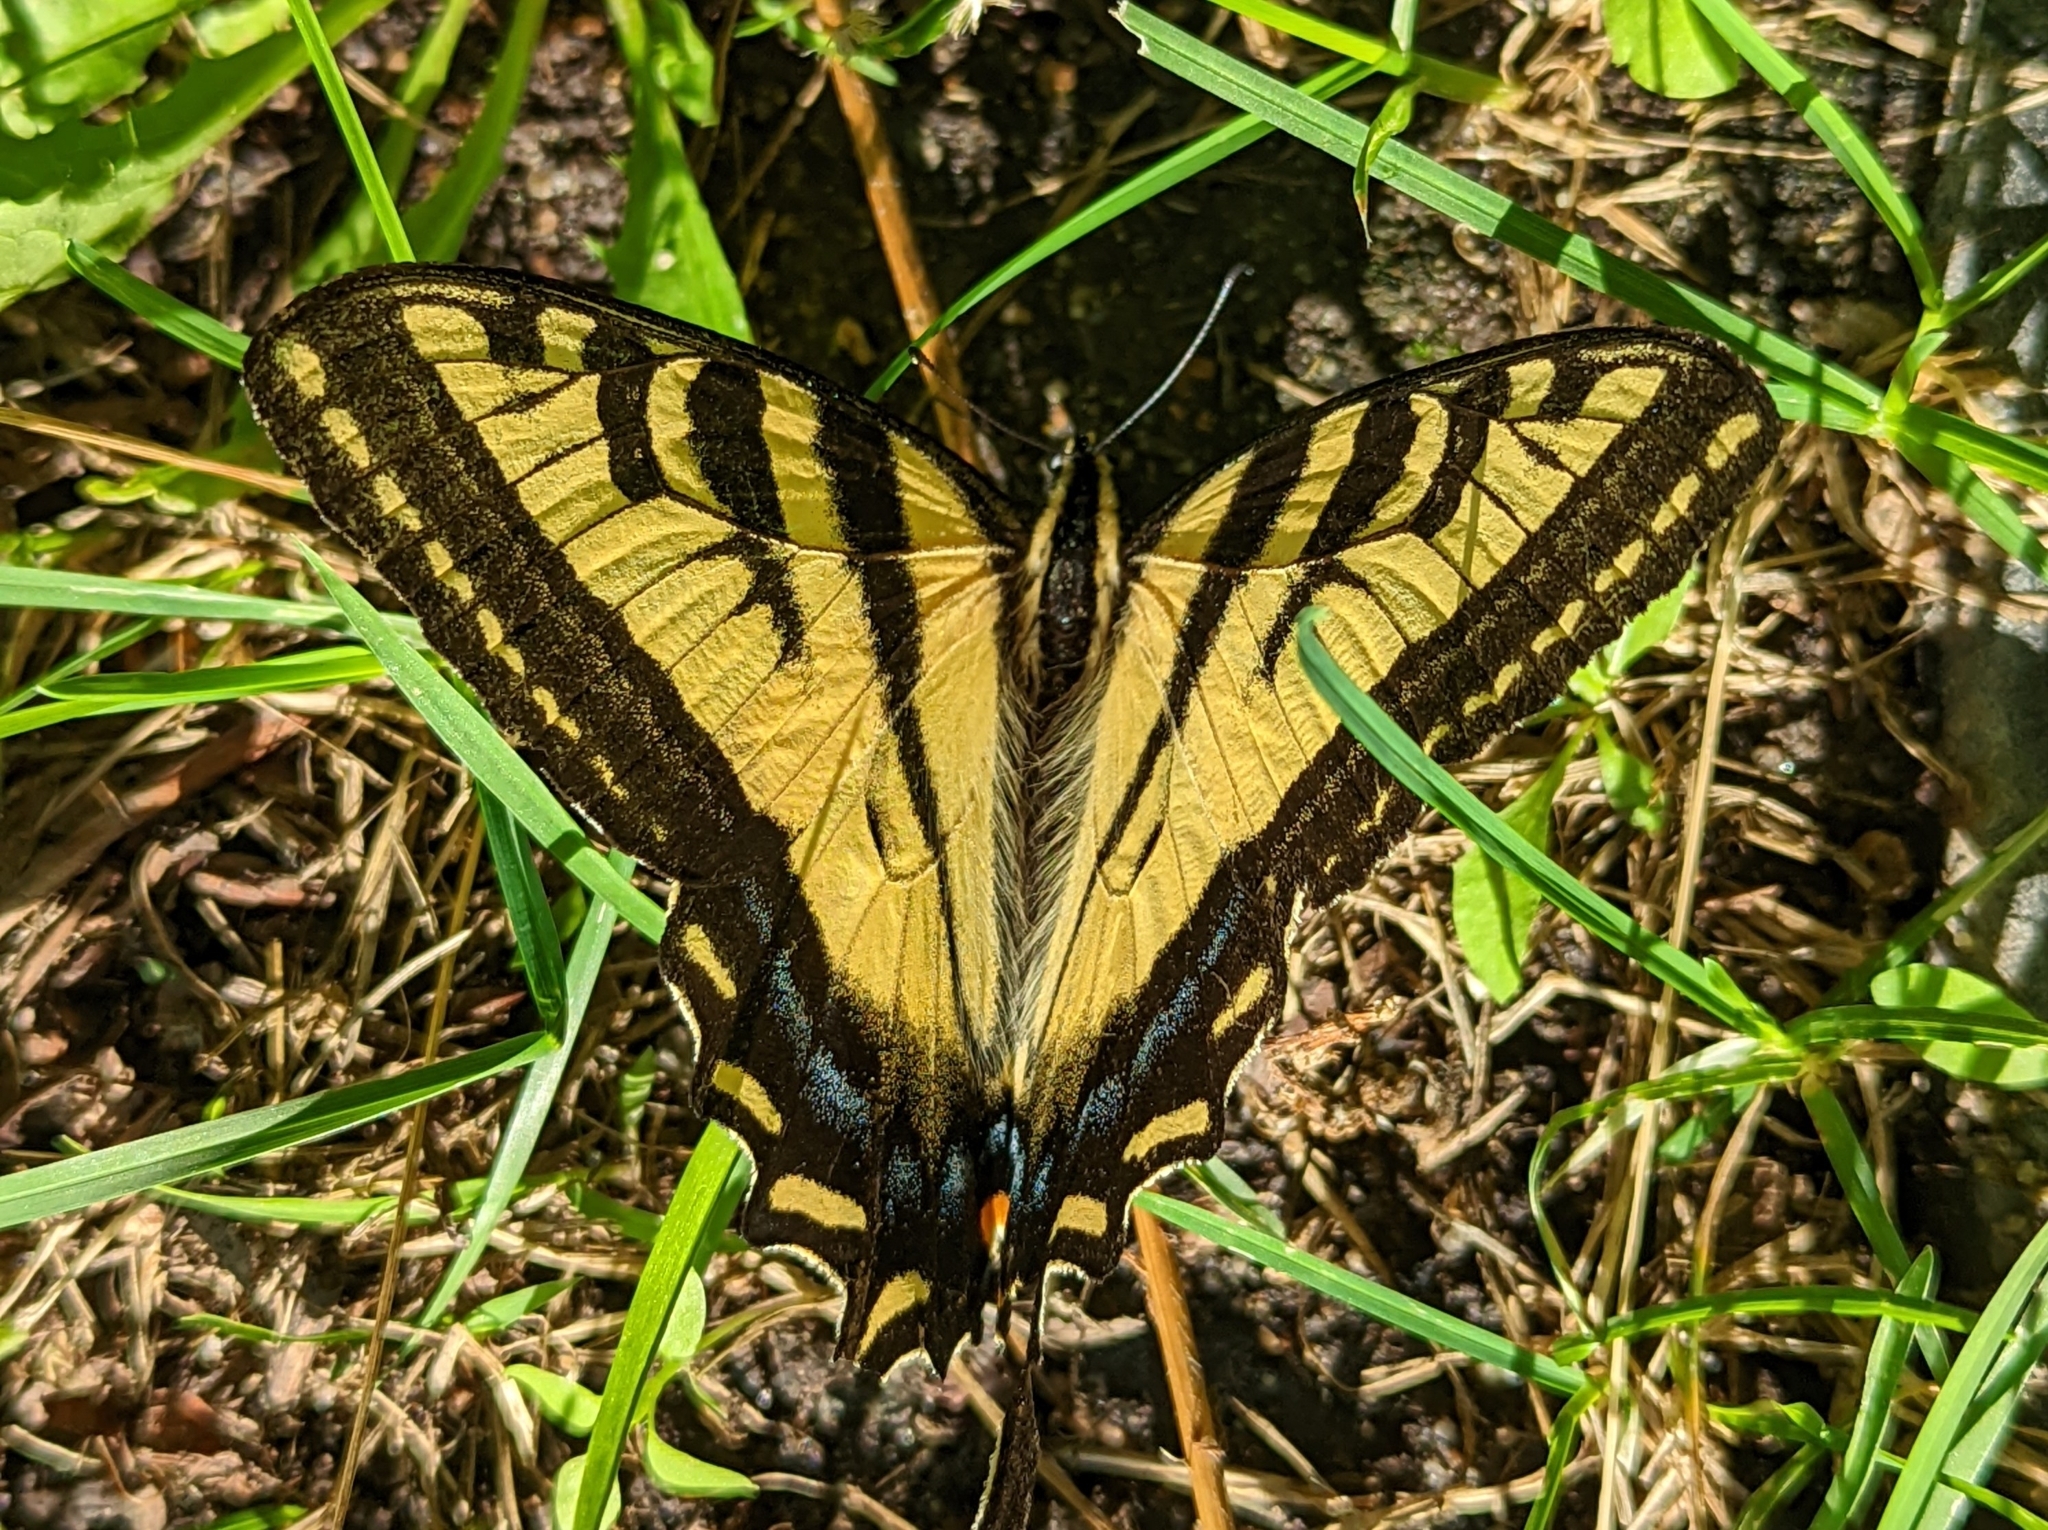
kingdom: Animalia
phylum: Arthropoda
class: Insecta
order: Lepidoptera
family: Papilionidae
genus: Papilio
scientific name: Papilio rutulus
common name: Western tiger swallowtail
